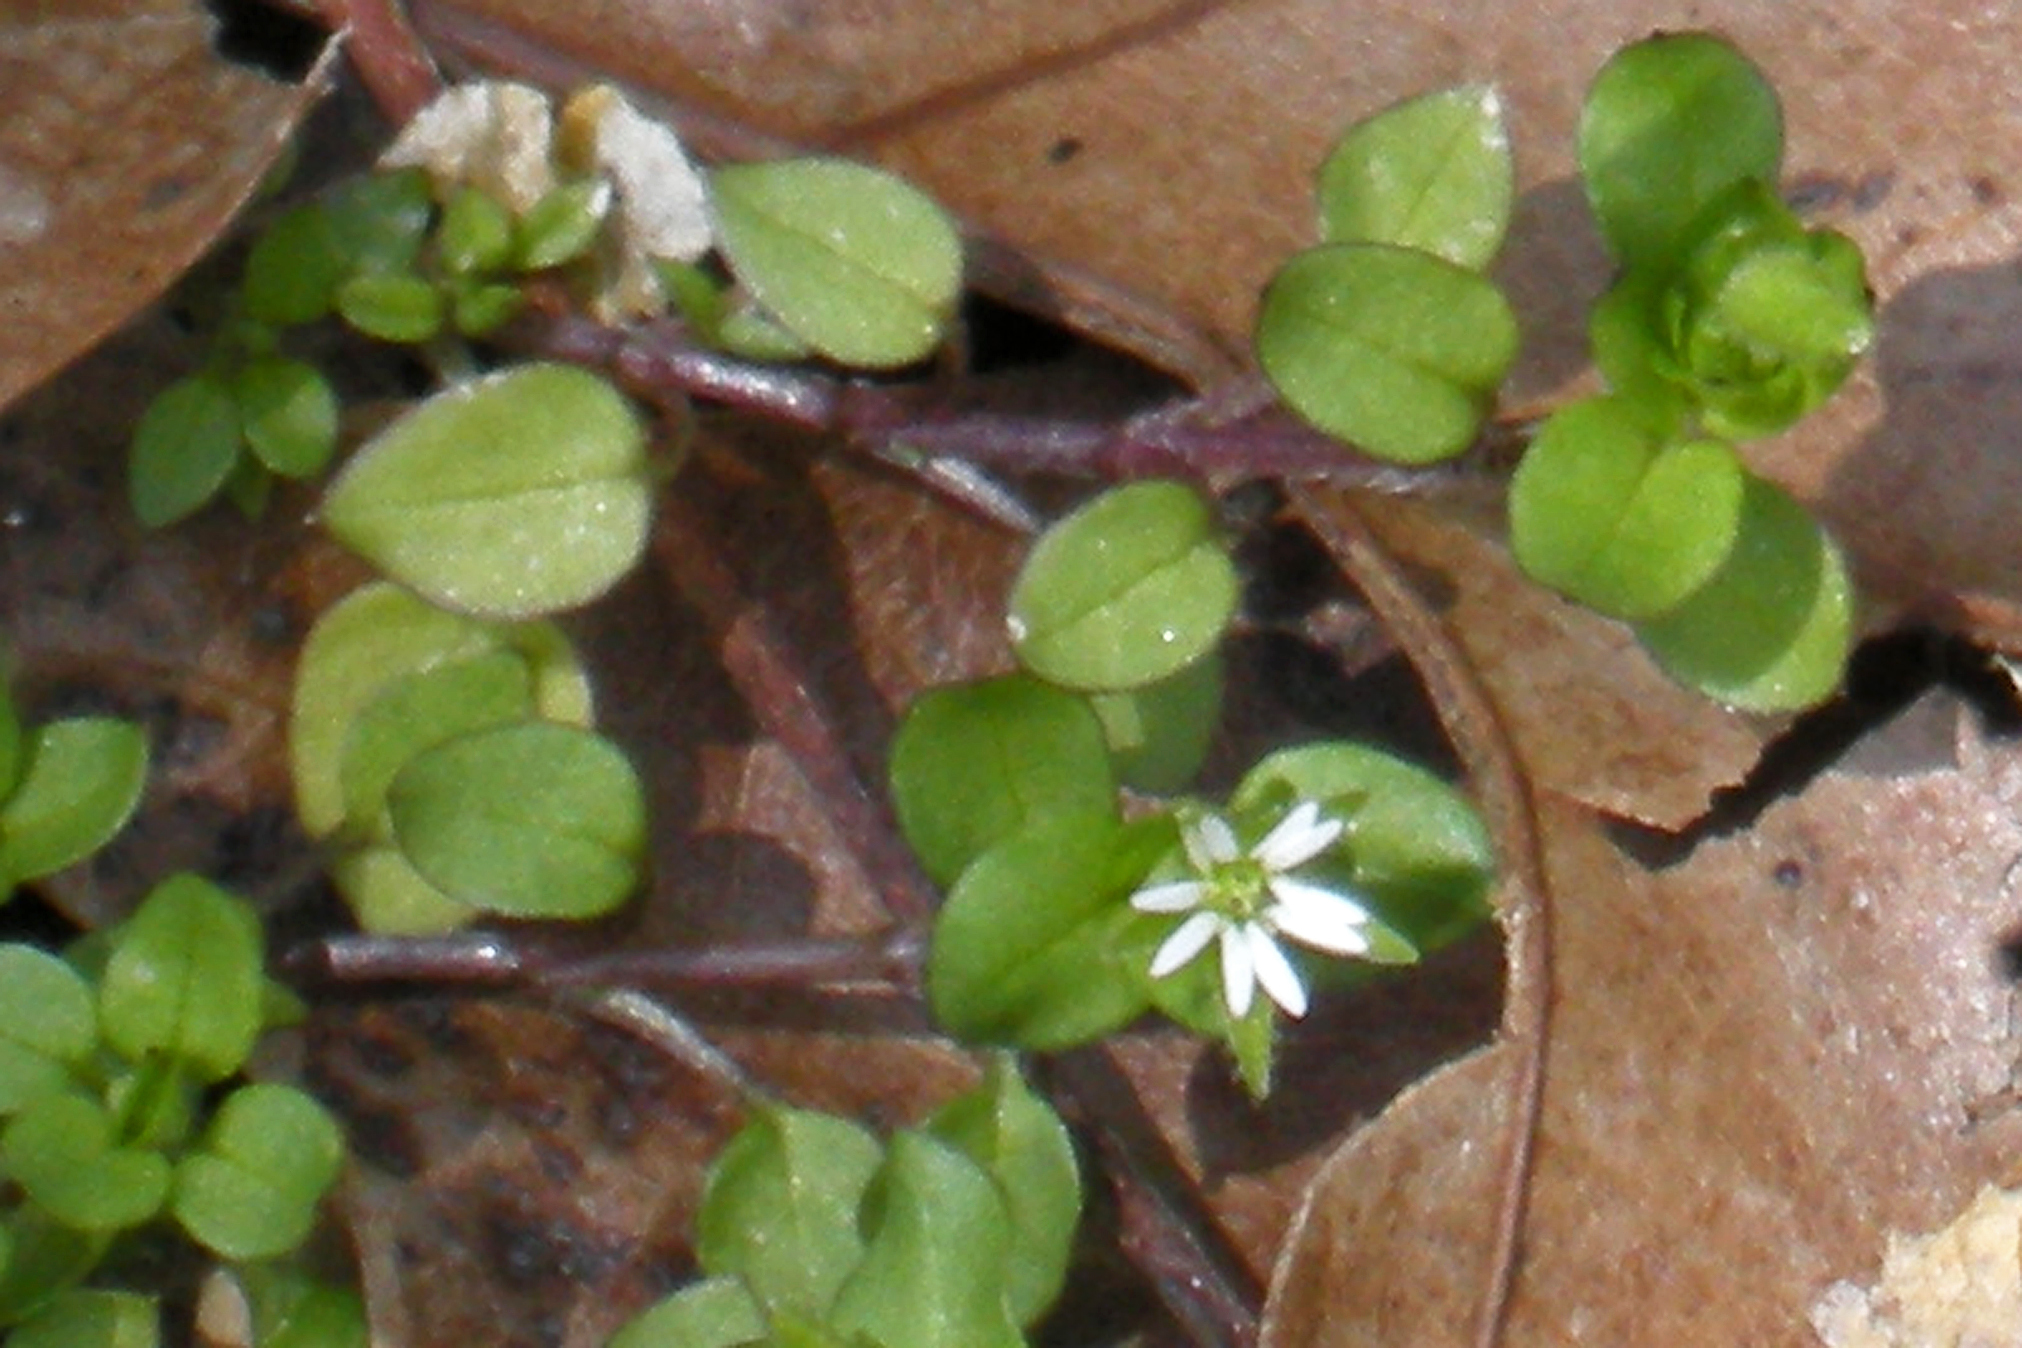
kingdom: Plantae
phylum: Tracheophyta
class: Magnoliopsida
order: Caryophyllales
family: Caryophyllaceae
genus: Stellaria
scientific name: Stellaria media
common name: Common chickweed
